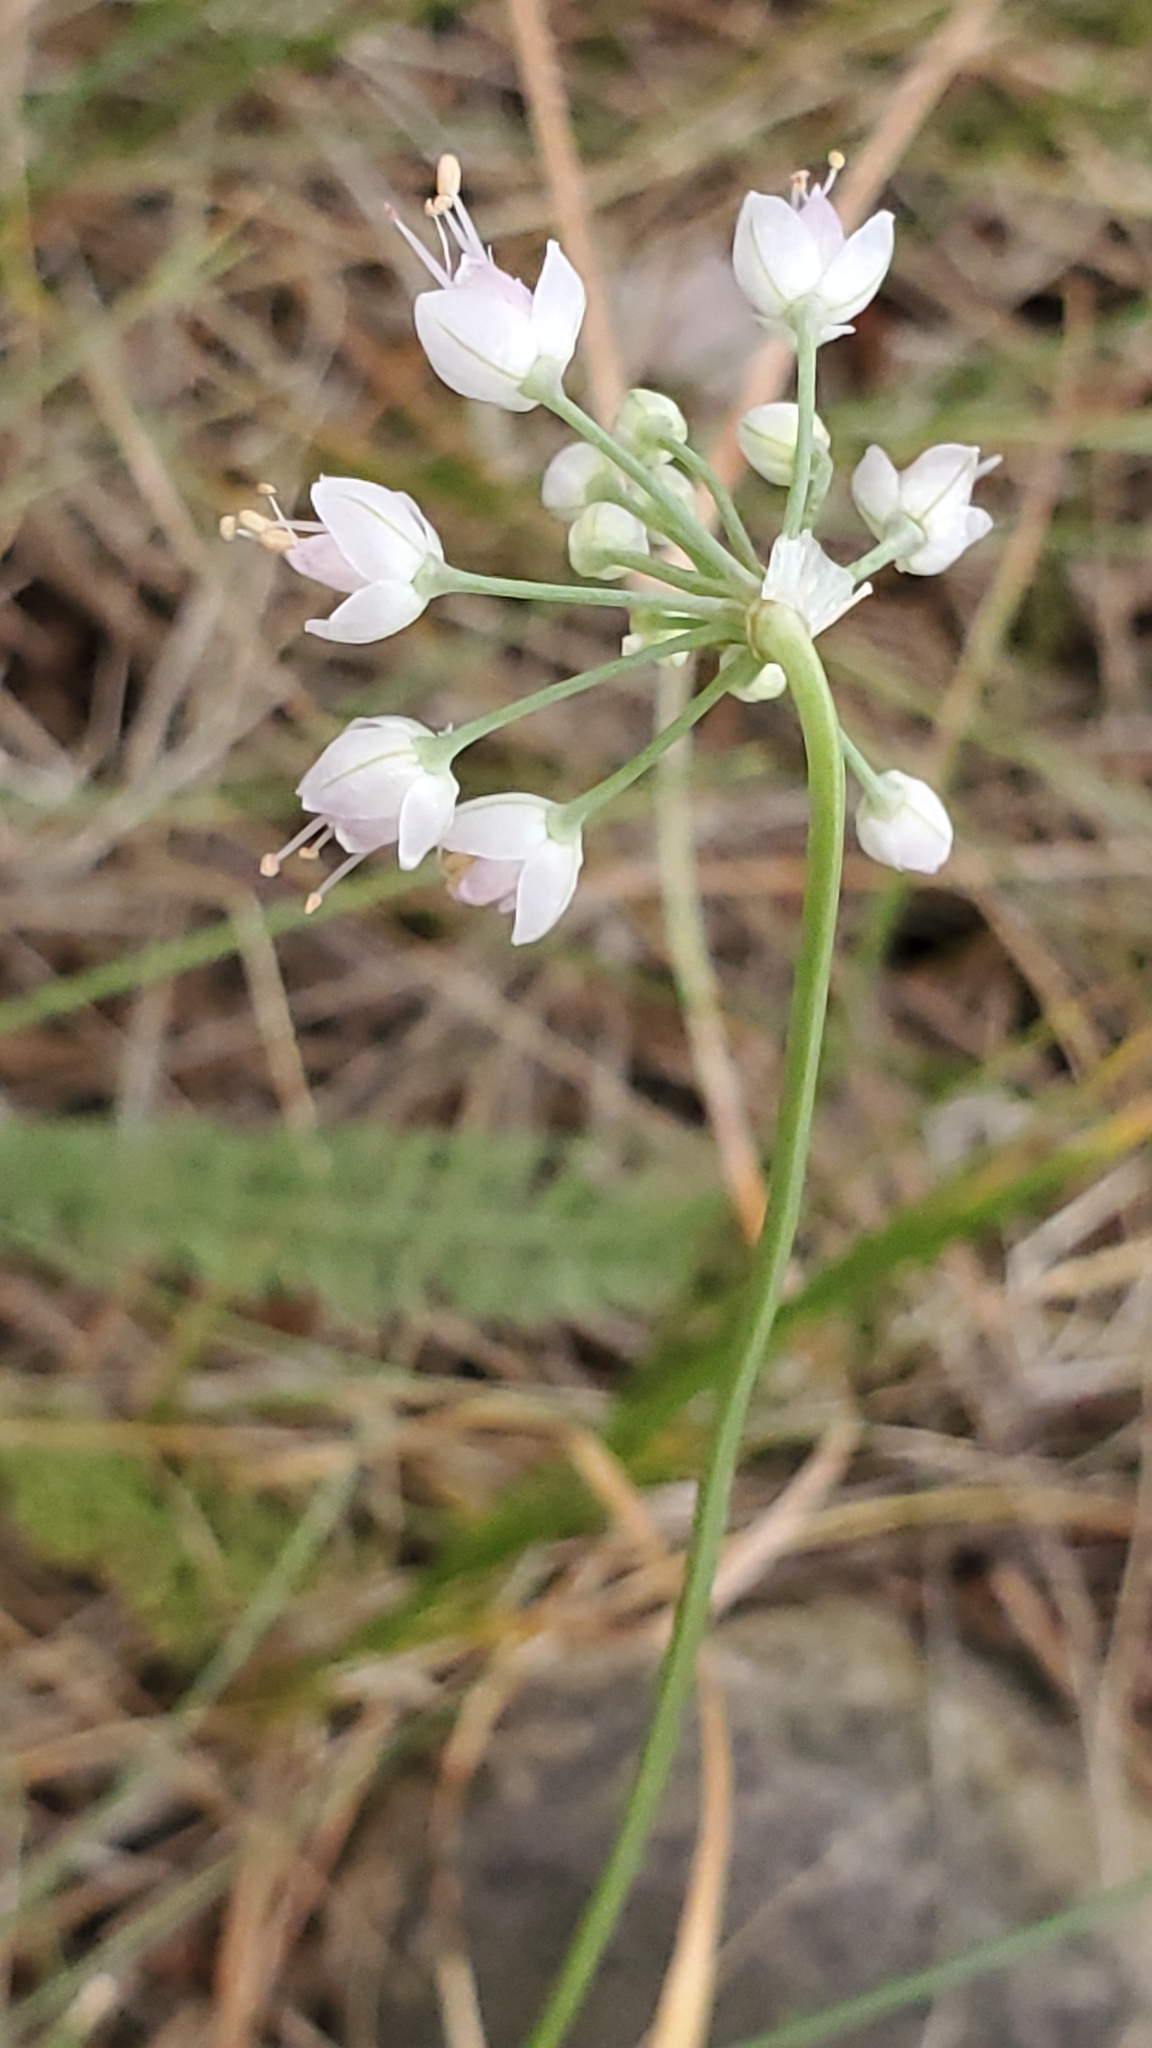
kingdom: Plantae
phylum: Tracheophyta
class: Liliopsida
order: Asparagales
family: Amaryllidaceae
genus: Allium
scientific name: Allium cernuum
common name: Nodding onion
